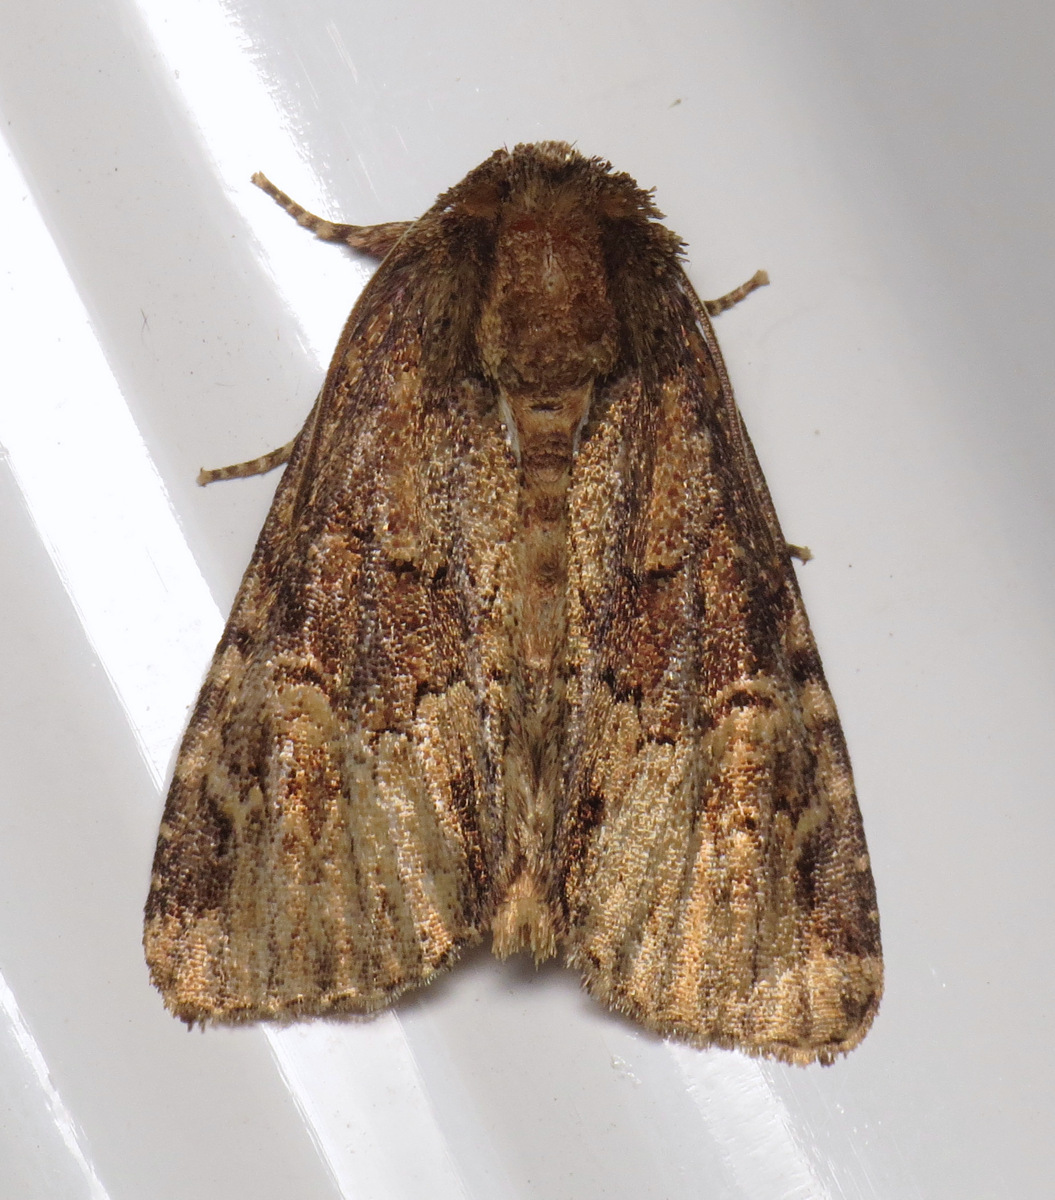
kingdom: Animalia
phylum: Arthropoda
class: Insecta
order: Lepidoptera
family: Noctuidae
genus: Phosphila
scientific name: Phosphila turbulenta
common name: Turbulent phosphila moth
